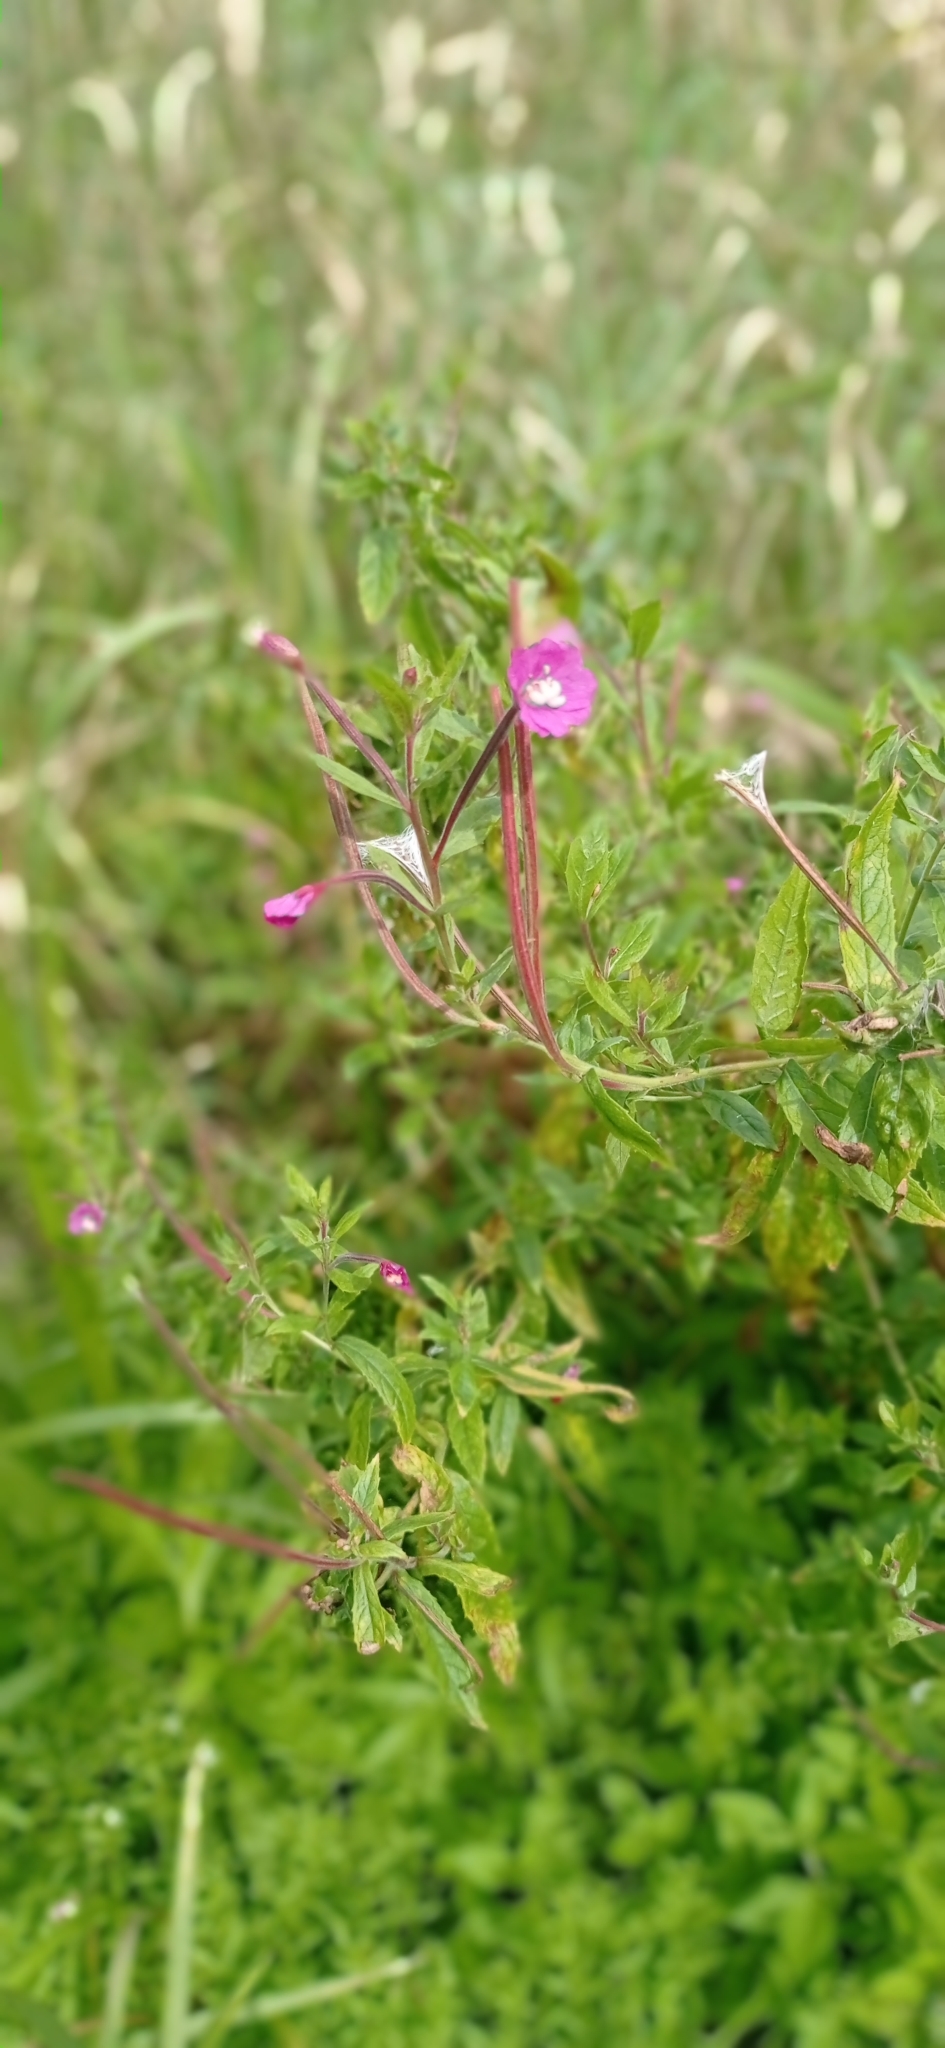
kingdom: Plantae
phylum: Tracheophyta
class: Magnoliopsida
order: Myrtales
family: Onagraceae
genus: Epilobium
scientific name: Epilobium hirsutum
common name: Great willowherb
